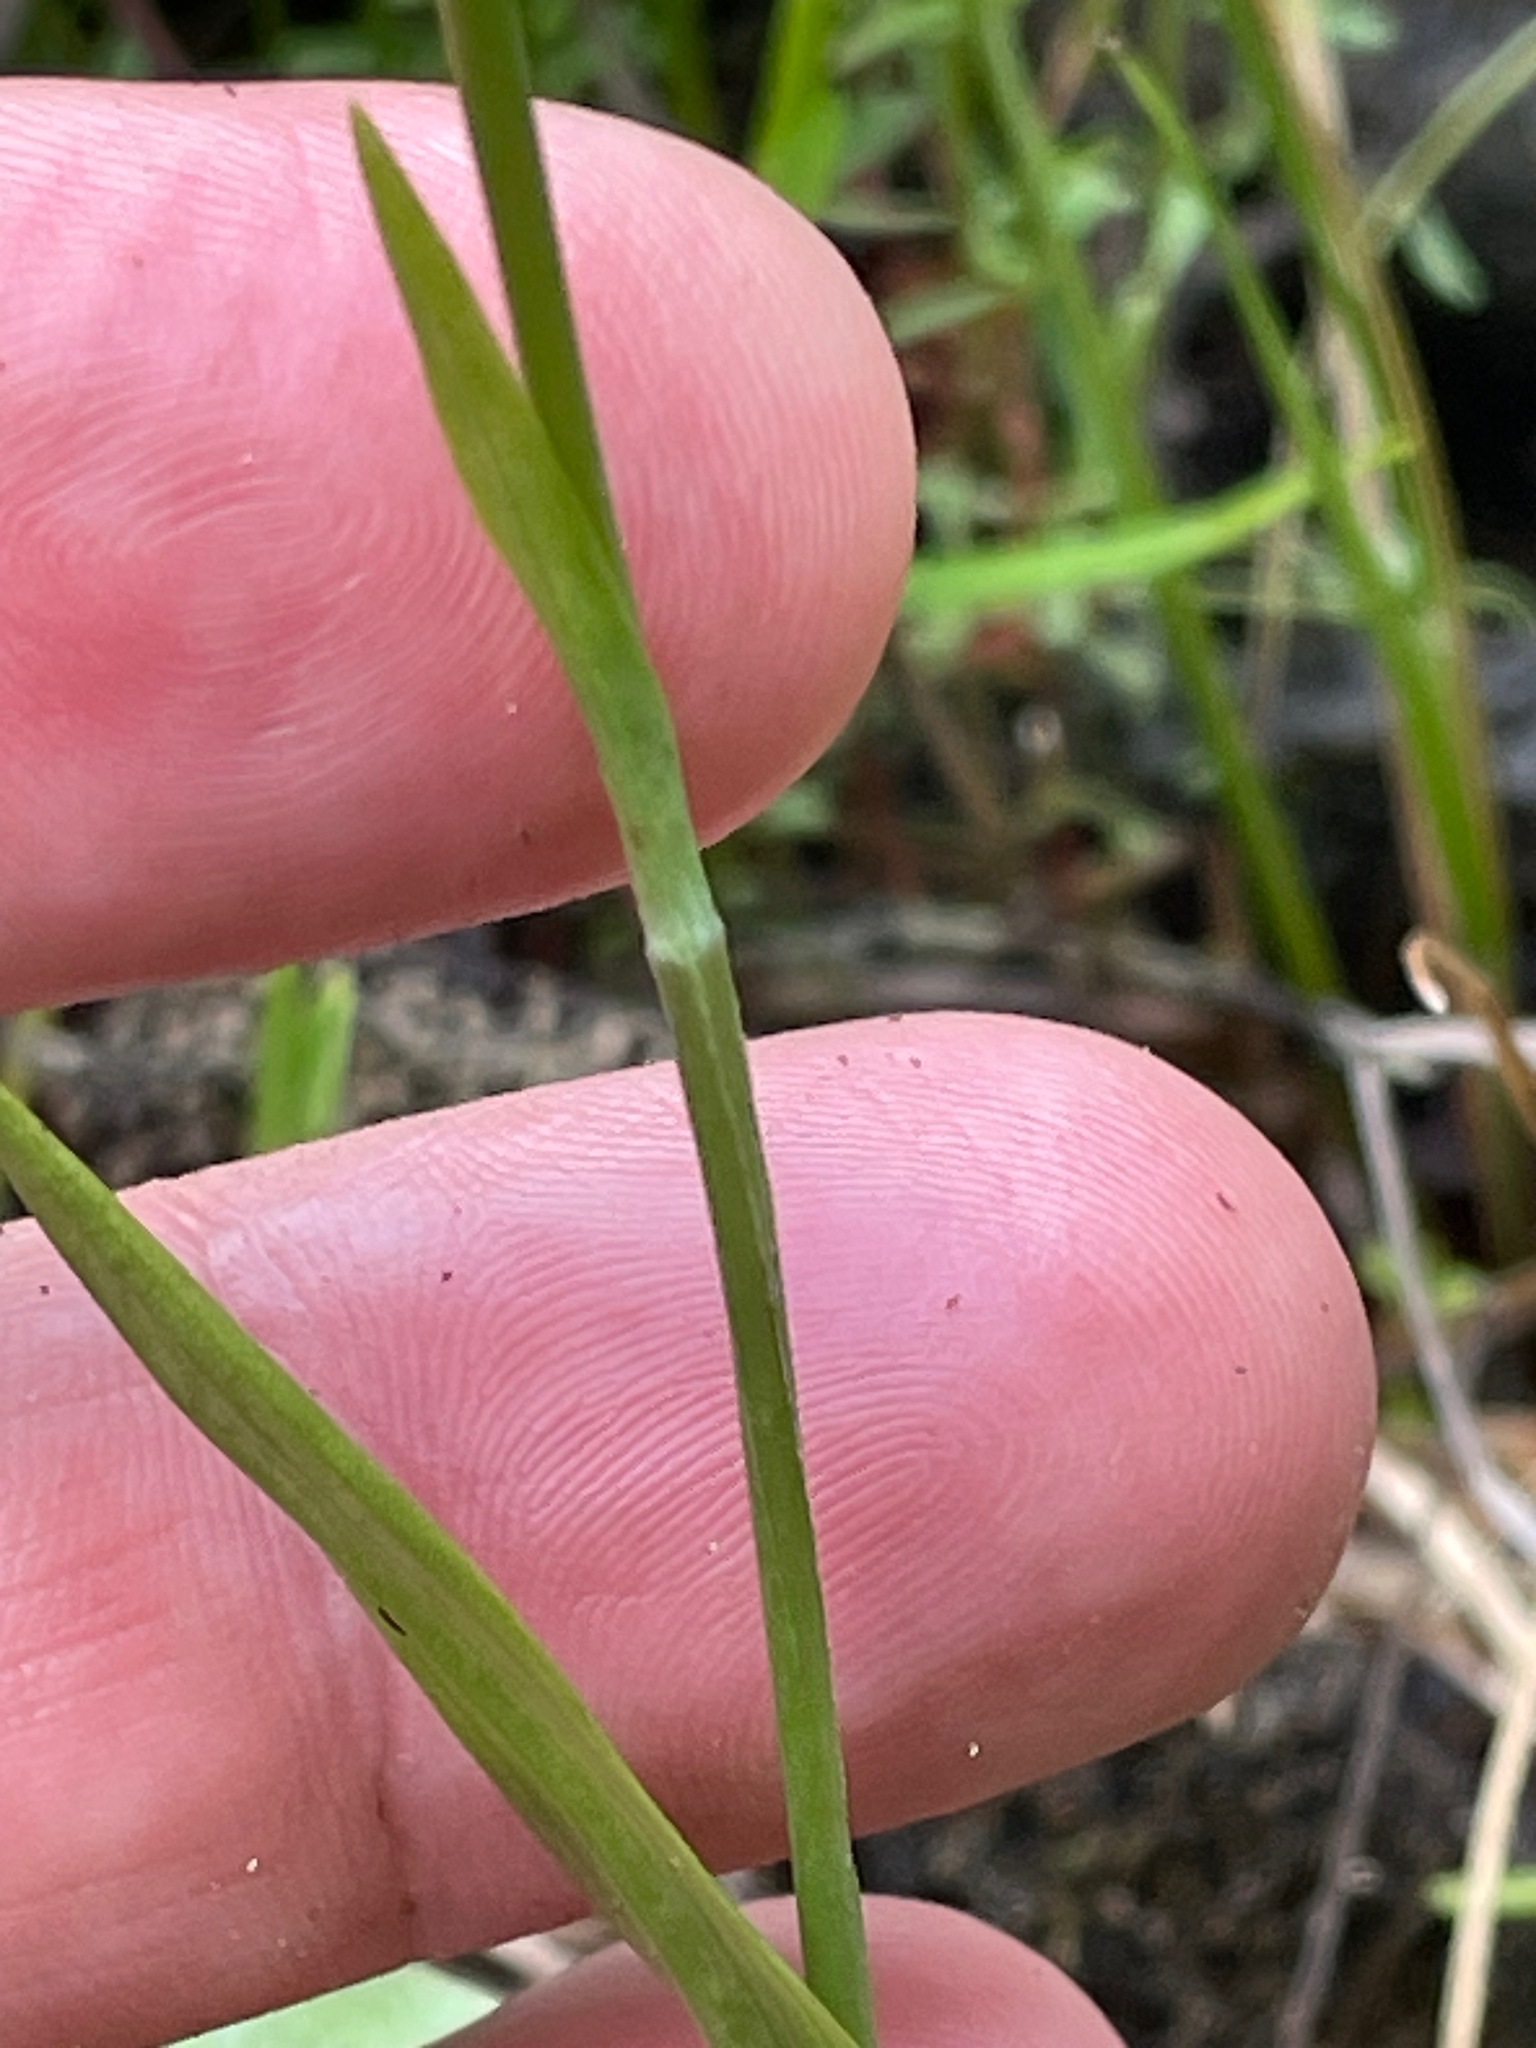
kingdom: Plantae
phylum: Tracheophyta
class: Liliopsida
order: Asparagales
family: Orchidaceae
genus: Platanthera
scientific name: Platanthera clavellata
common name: Club-spur orchid
